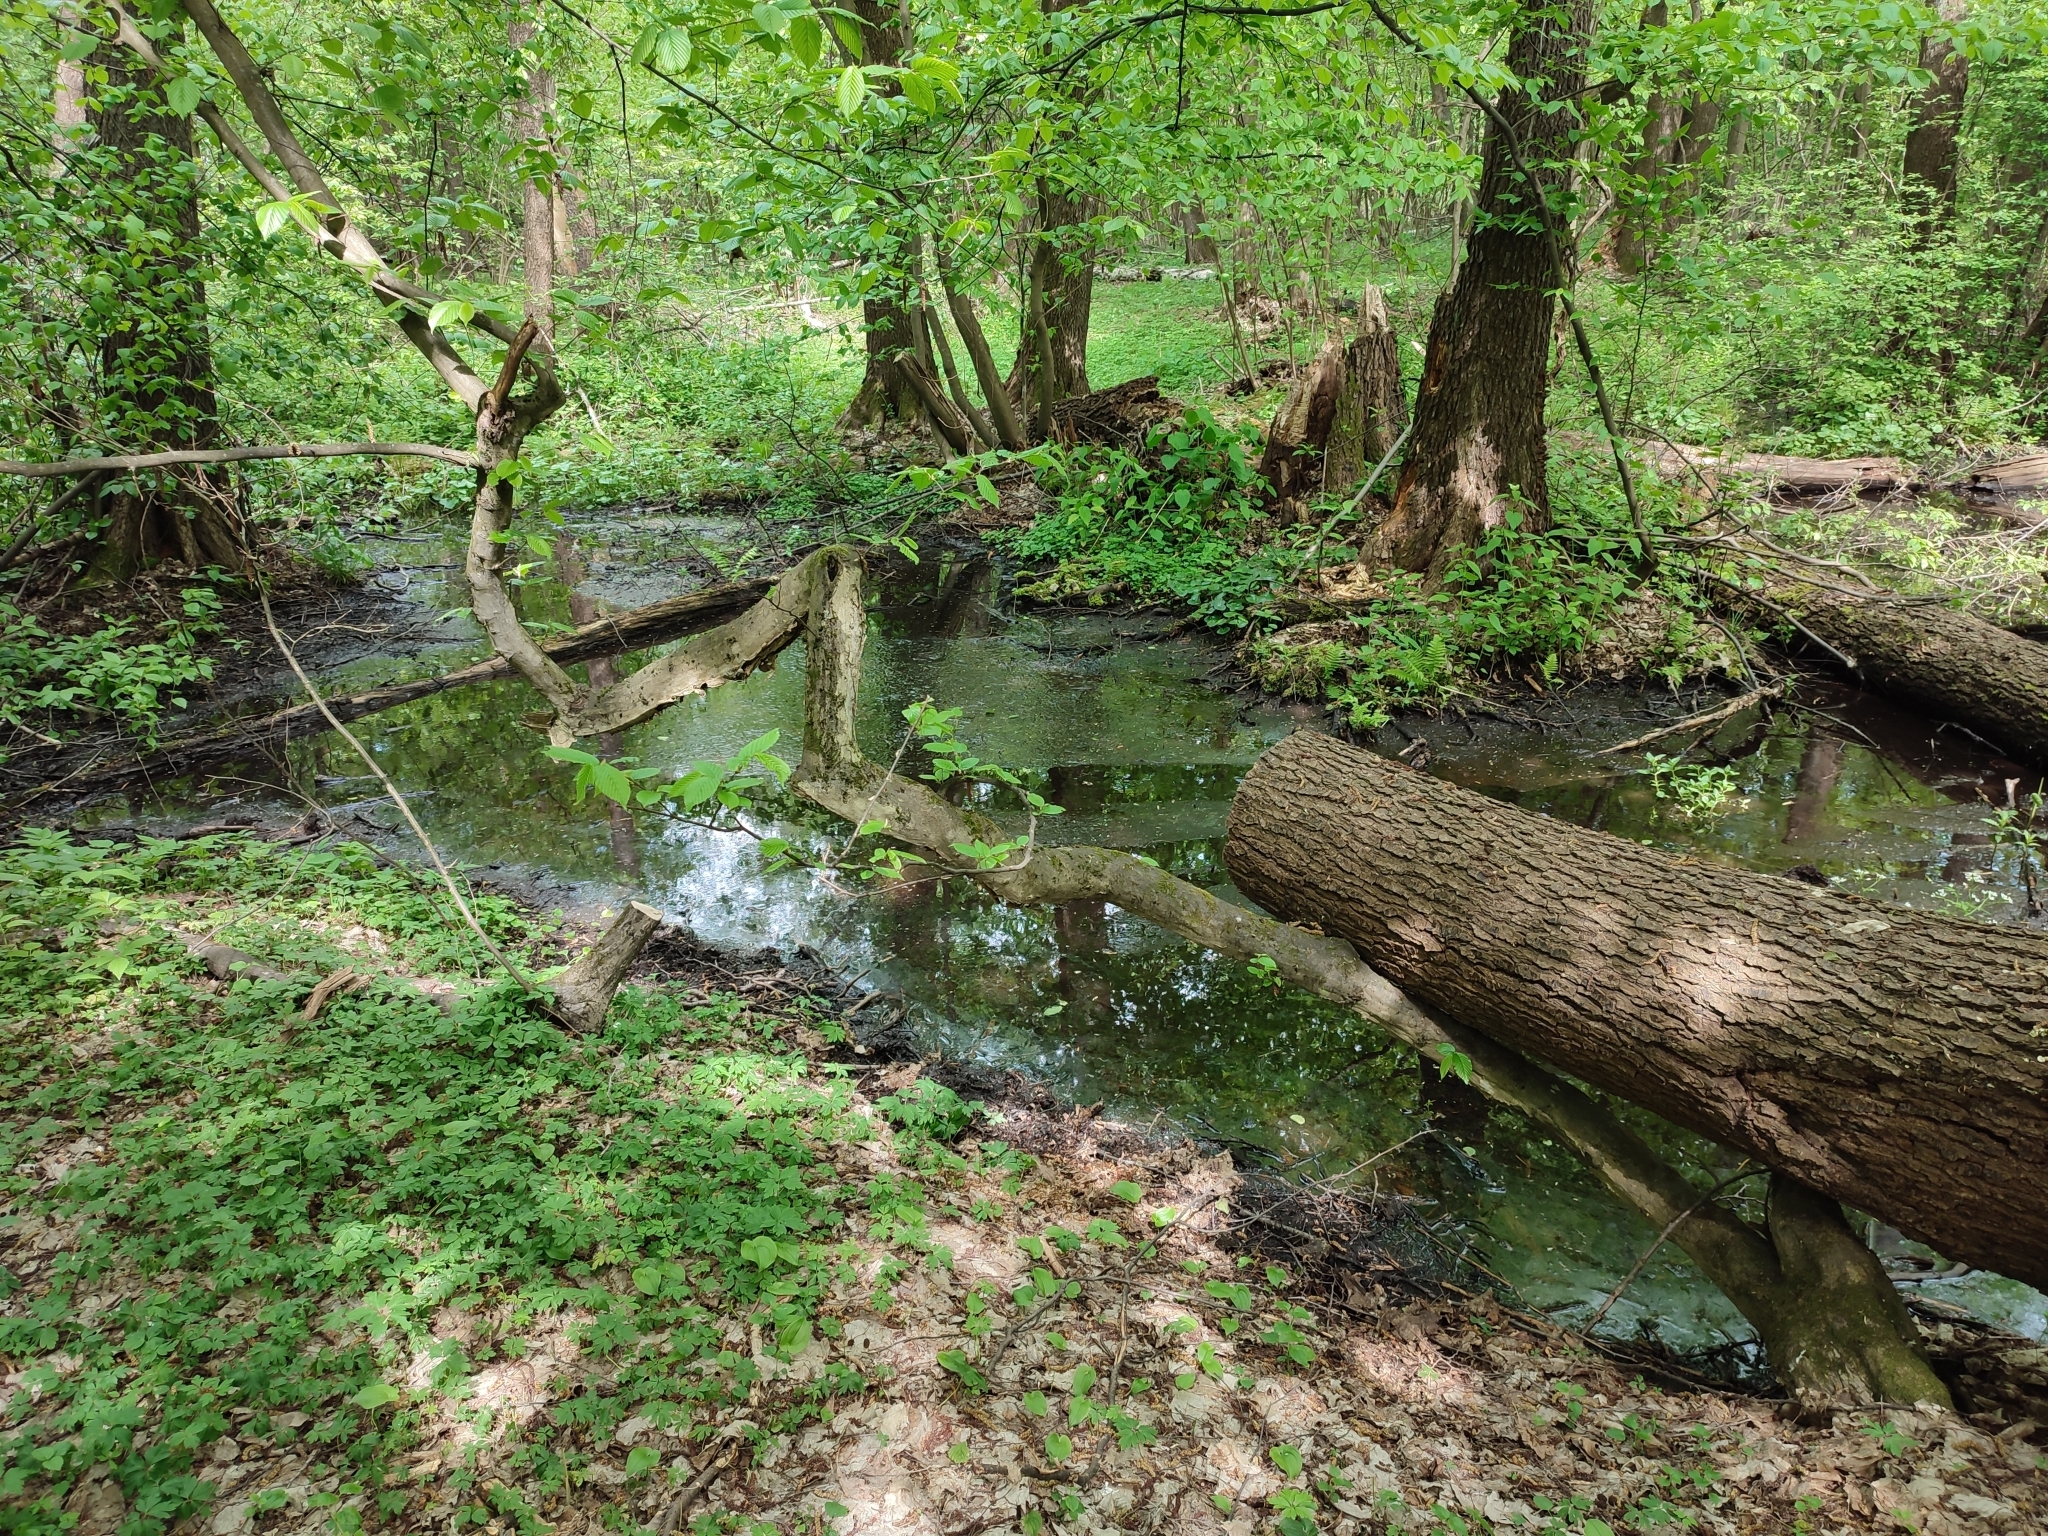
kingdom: Plantae
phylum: Tracheophyta
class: Magnoliopsida
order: Fagales
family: Betulaceae
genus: Carpinus
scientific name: Carpinus betulus
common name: Hornbeam
